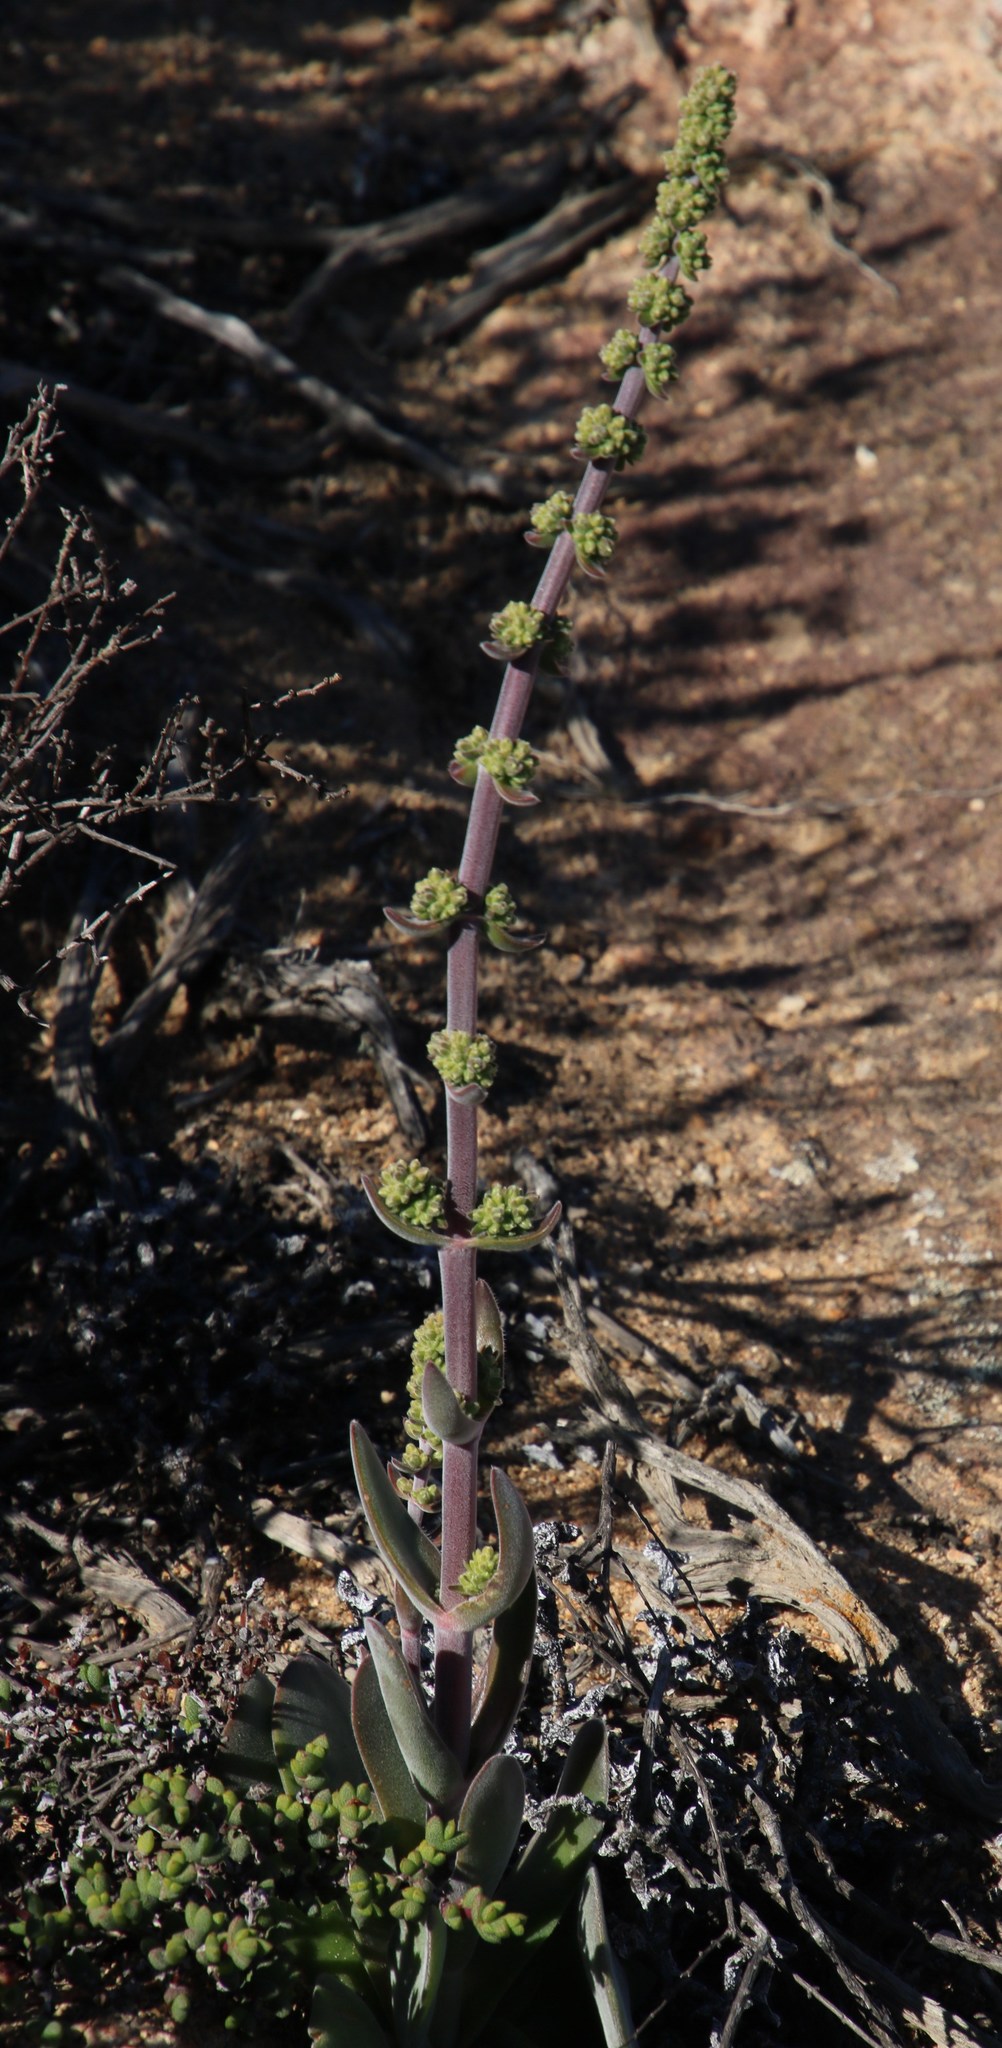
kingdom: Plantae
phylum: Tracheophyta
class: Magnoliopsida
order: Saxifragales
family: Crassulaceae
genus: Crassula
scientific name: Crassula tomentosa
